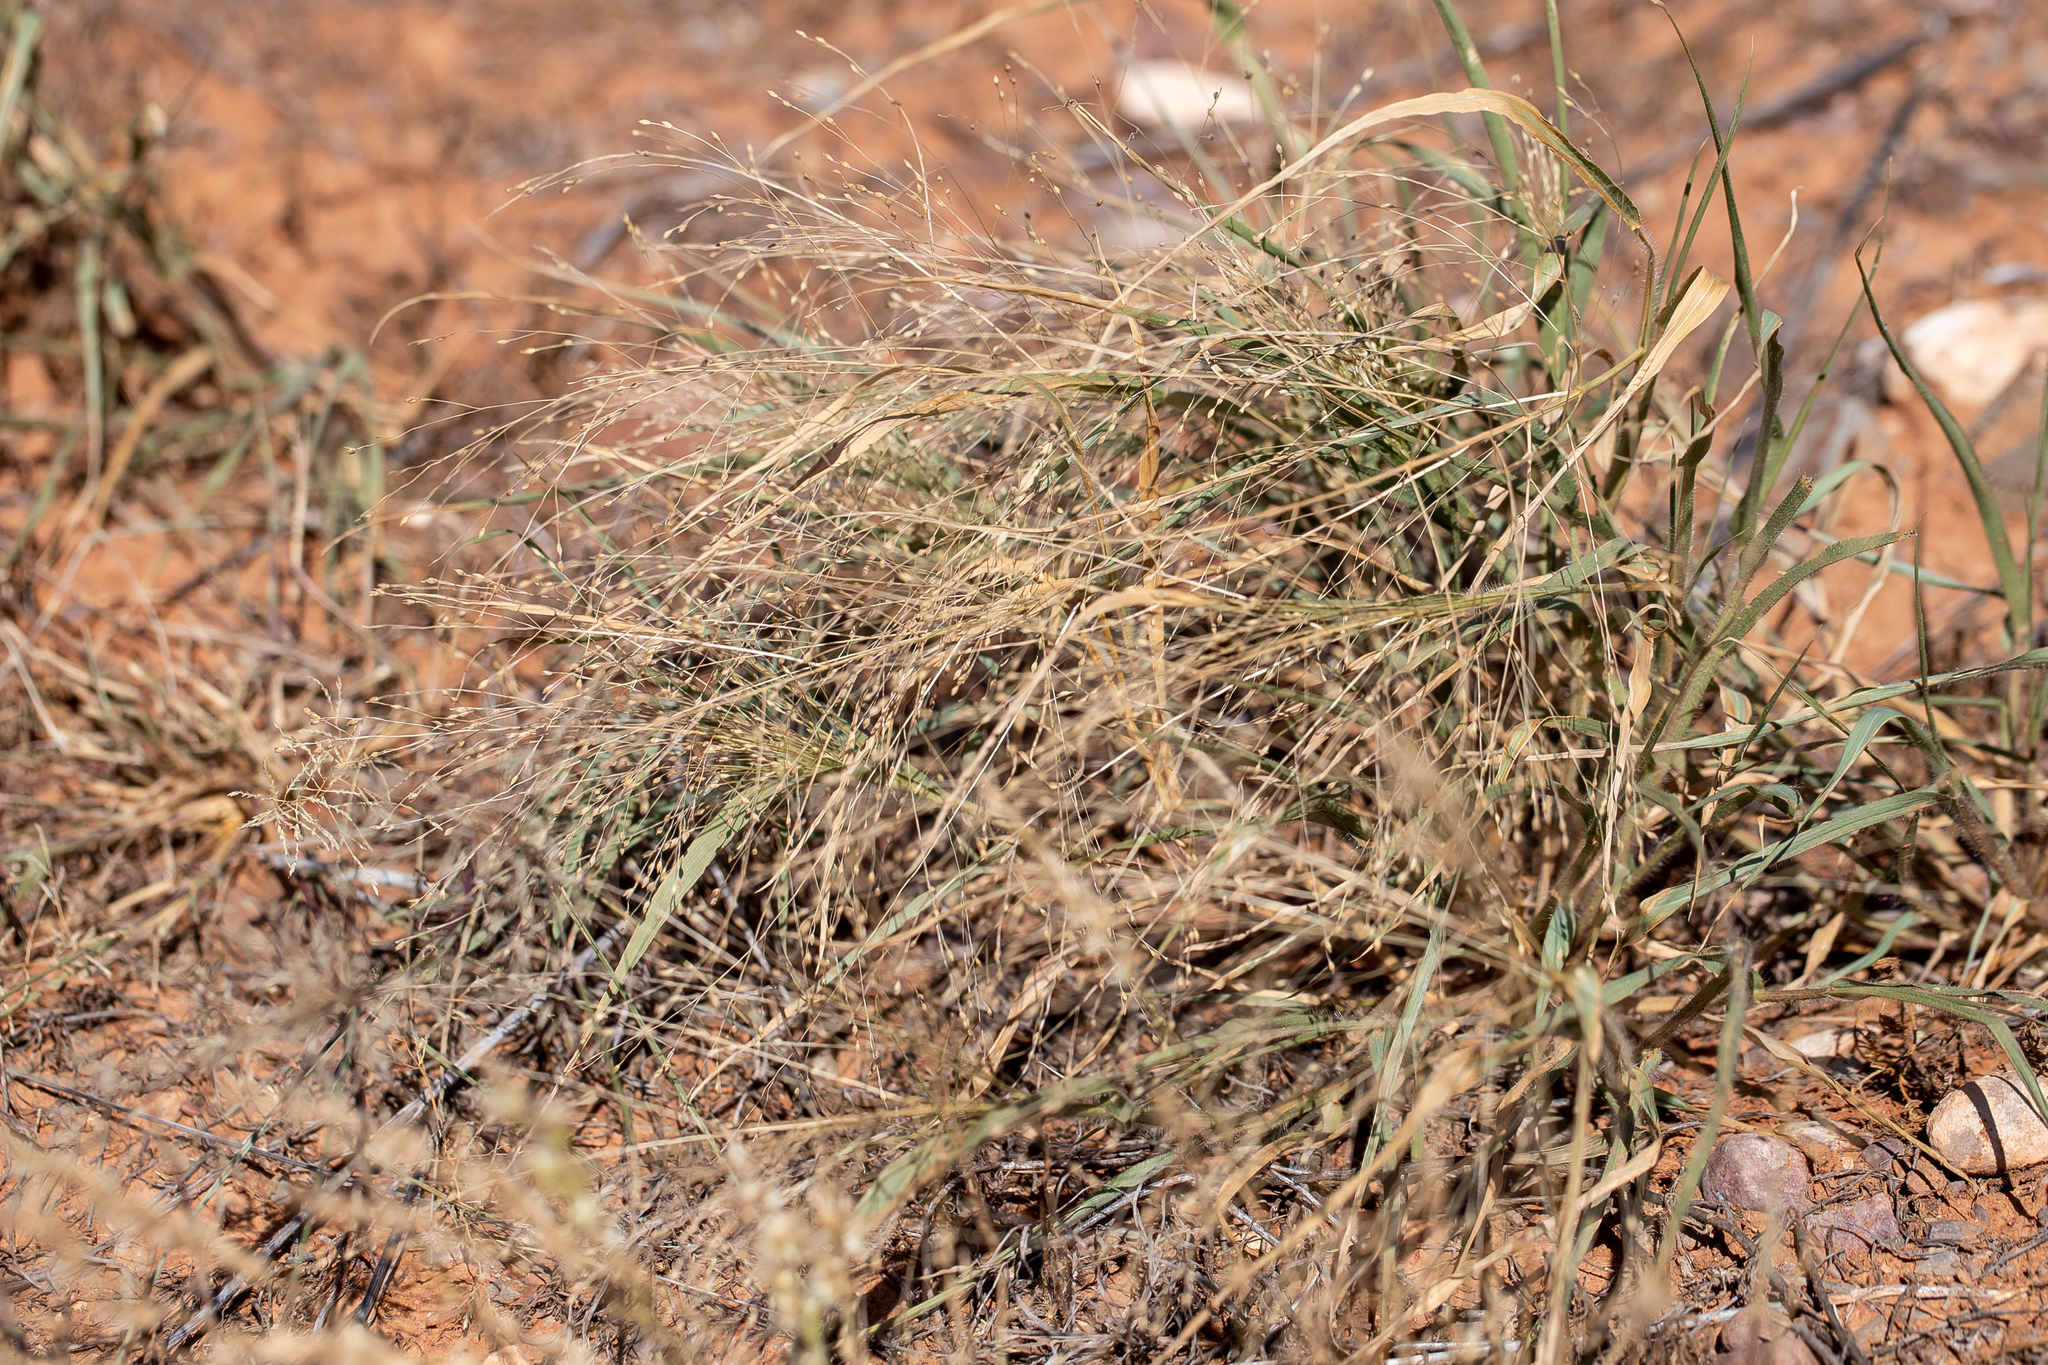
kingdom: Plantae
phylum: Tracheophyta
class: Liliopsida
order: Poales
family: Poaceae
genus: Panicum
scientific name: Panicum effusum
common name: Hairy panic grass
